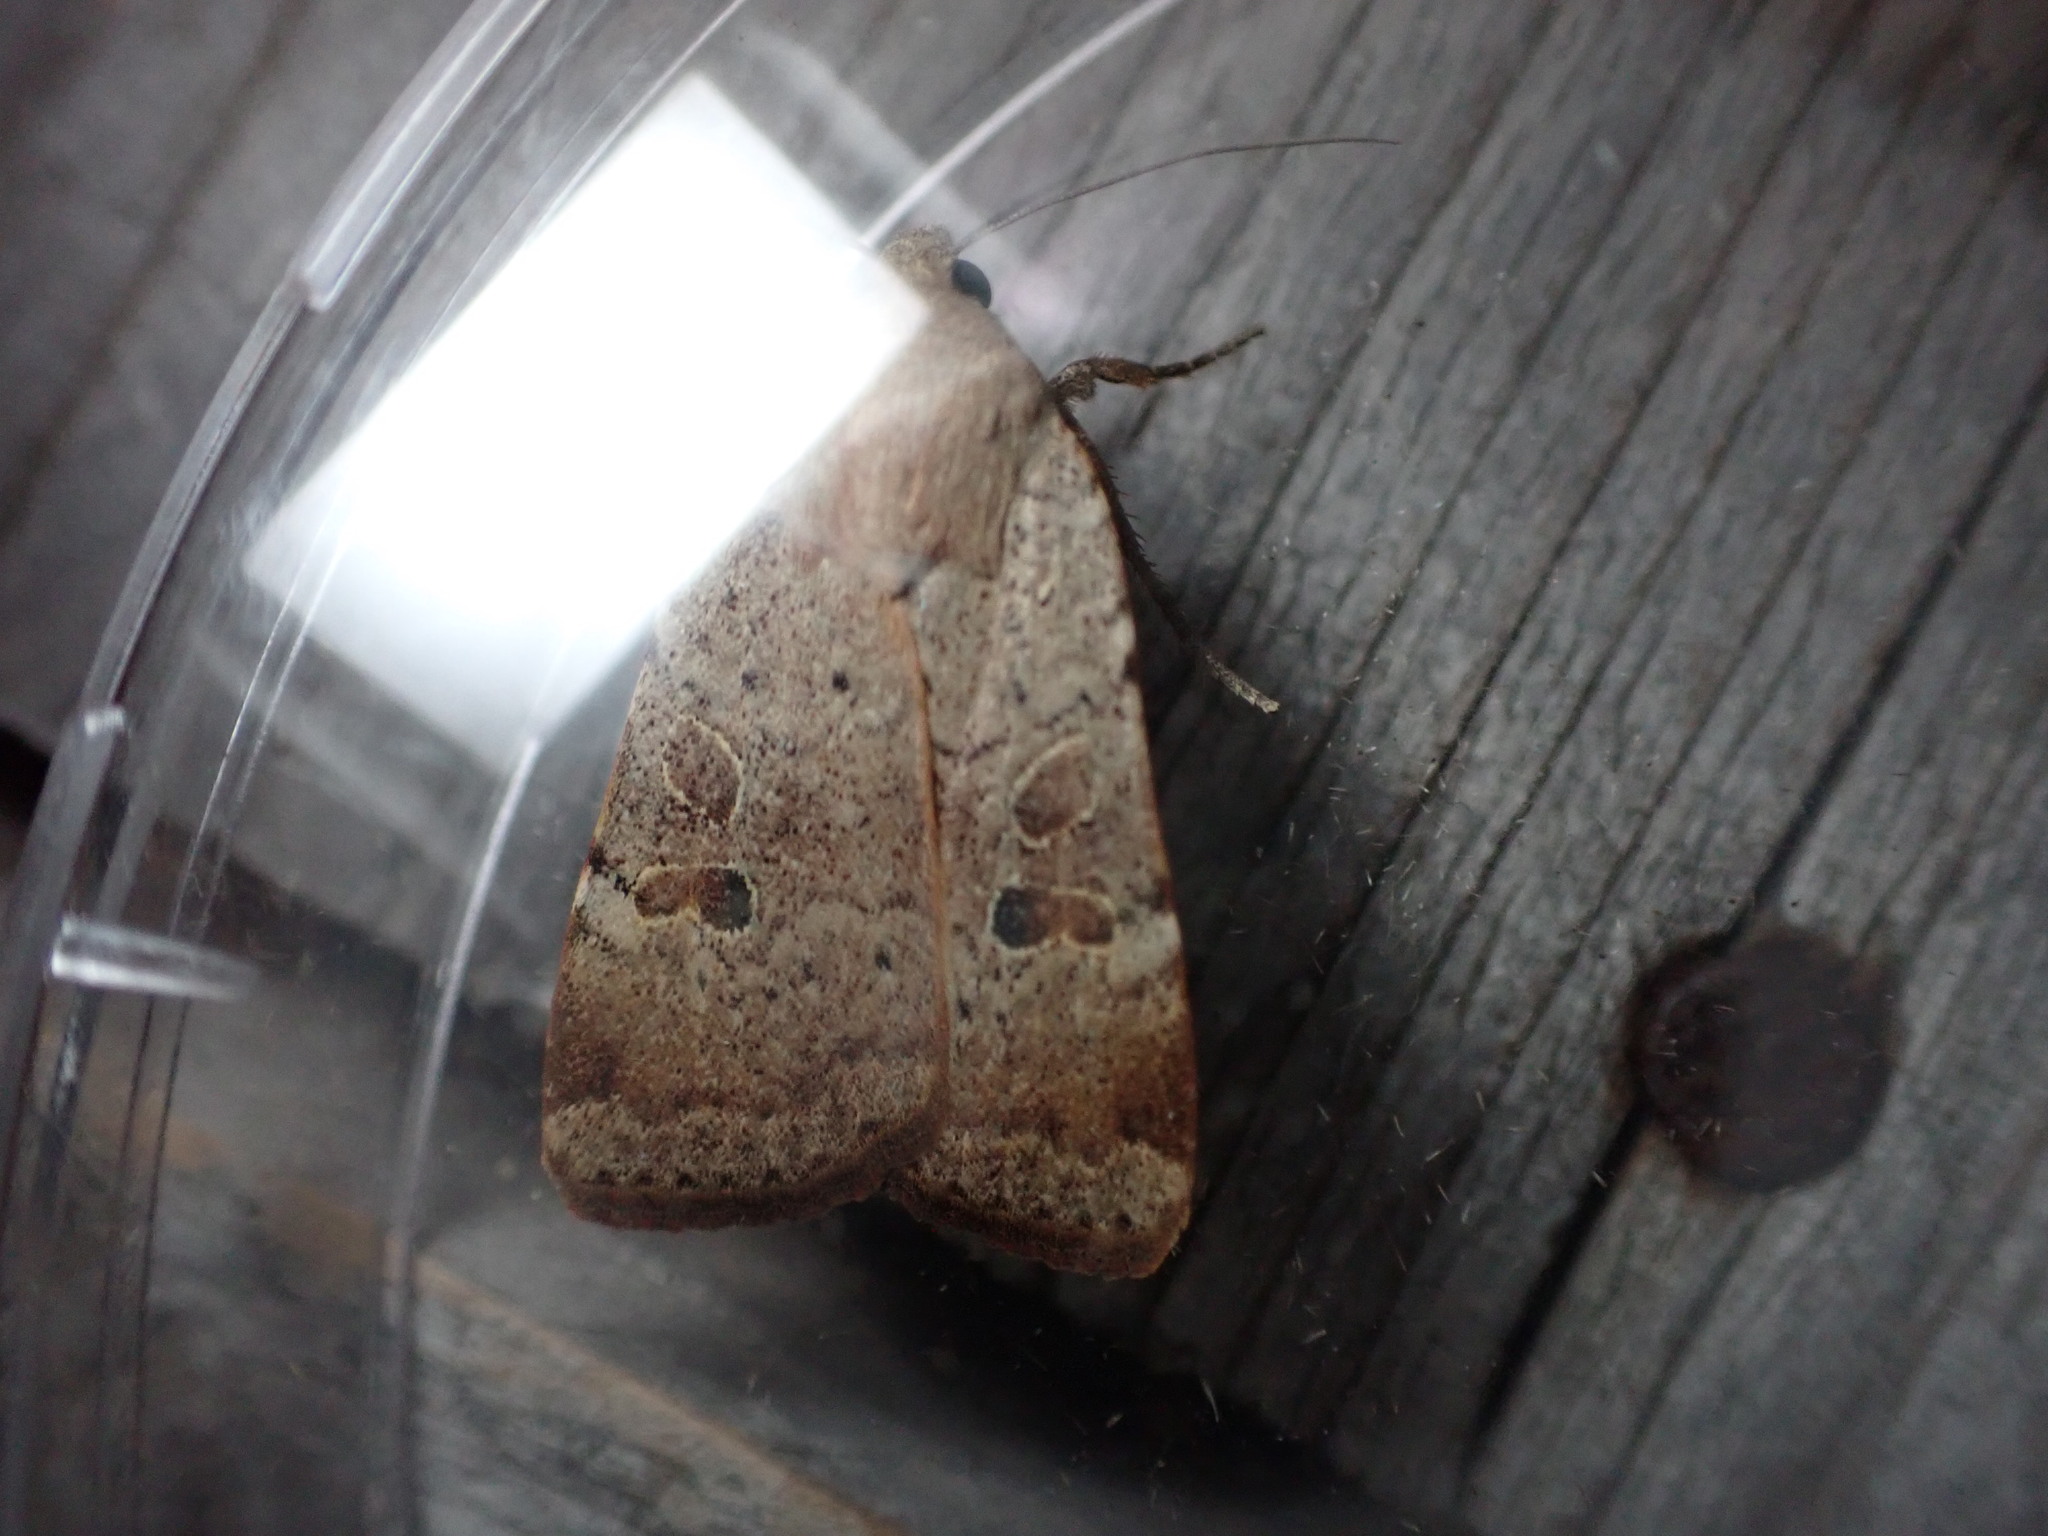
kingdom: Animalia
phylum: Arthropoda
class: Insecta
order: Lepidoptera
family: Noctuidae
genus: Noctua
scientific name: Noctua comes
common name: Lesser yellow underwing
